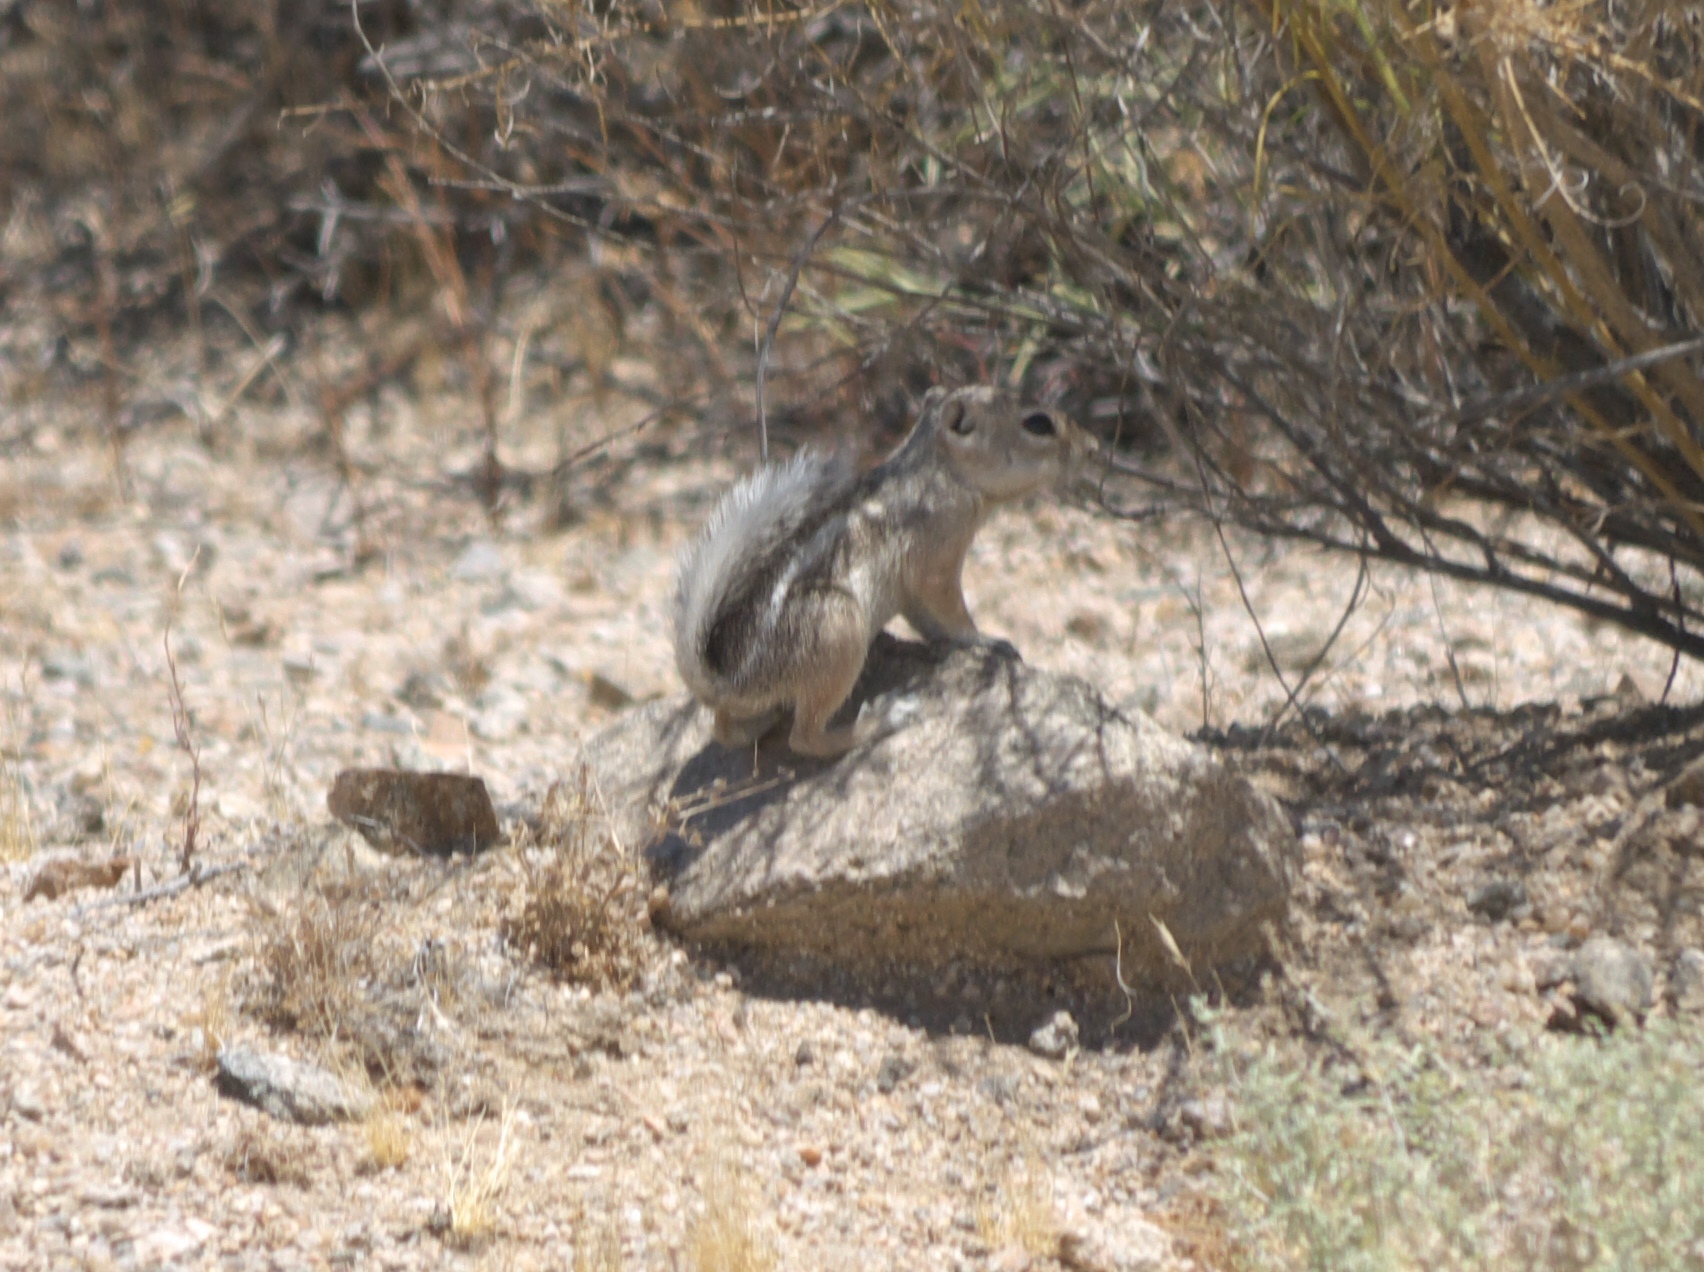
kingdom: Animalia
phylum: Chordata
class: Mammalia
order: Rodentia
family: Sciuridae
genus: Ammospermophilus
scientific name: Ammospermophilus leucurus
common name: White-tailed antelope squirrel
